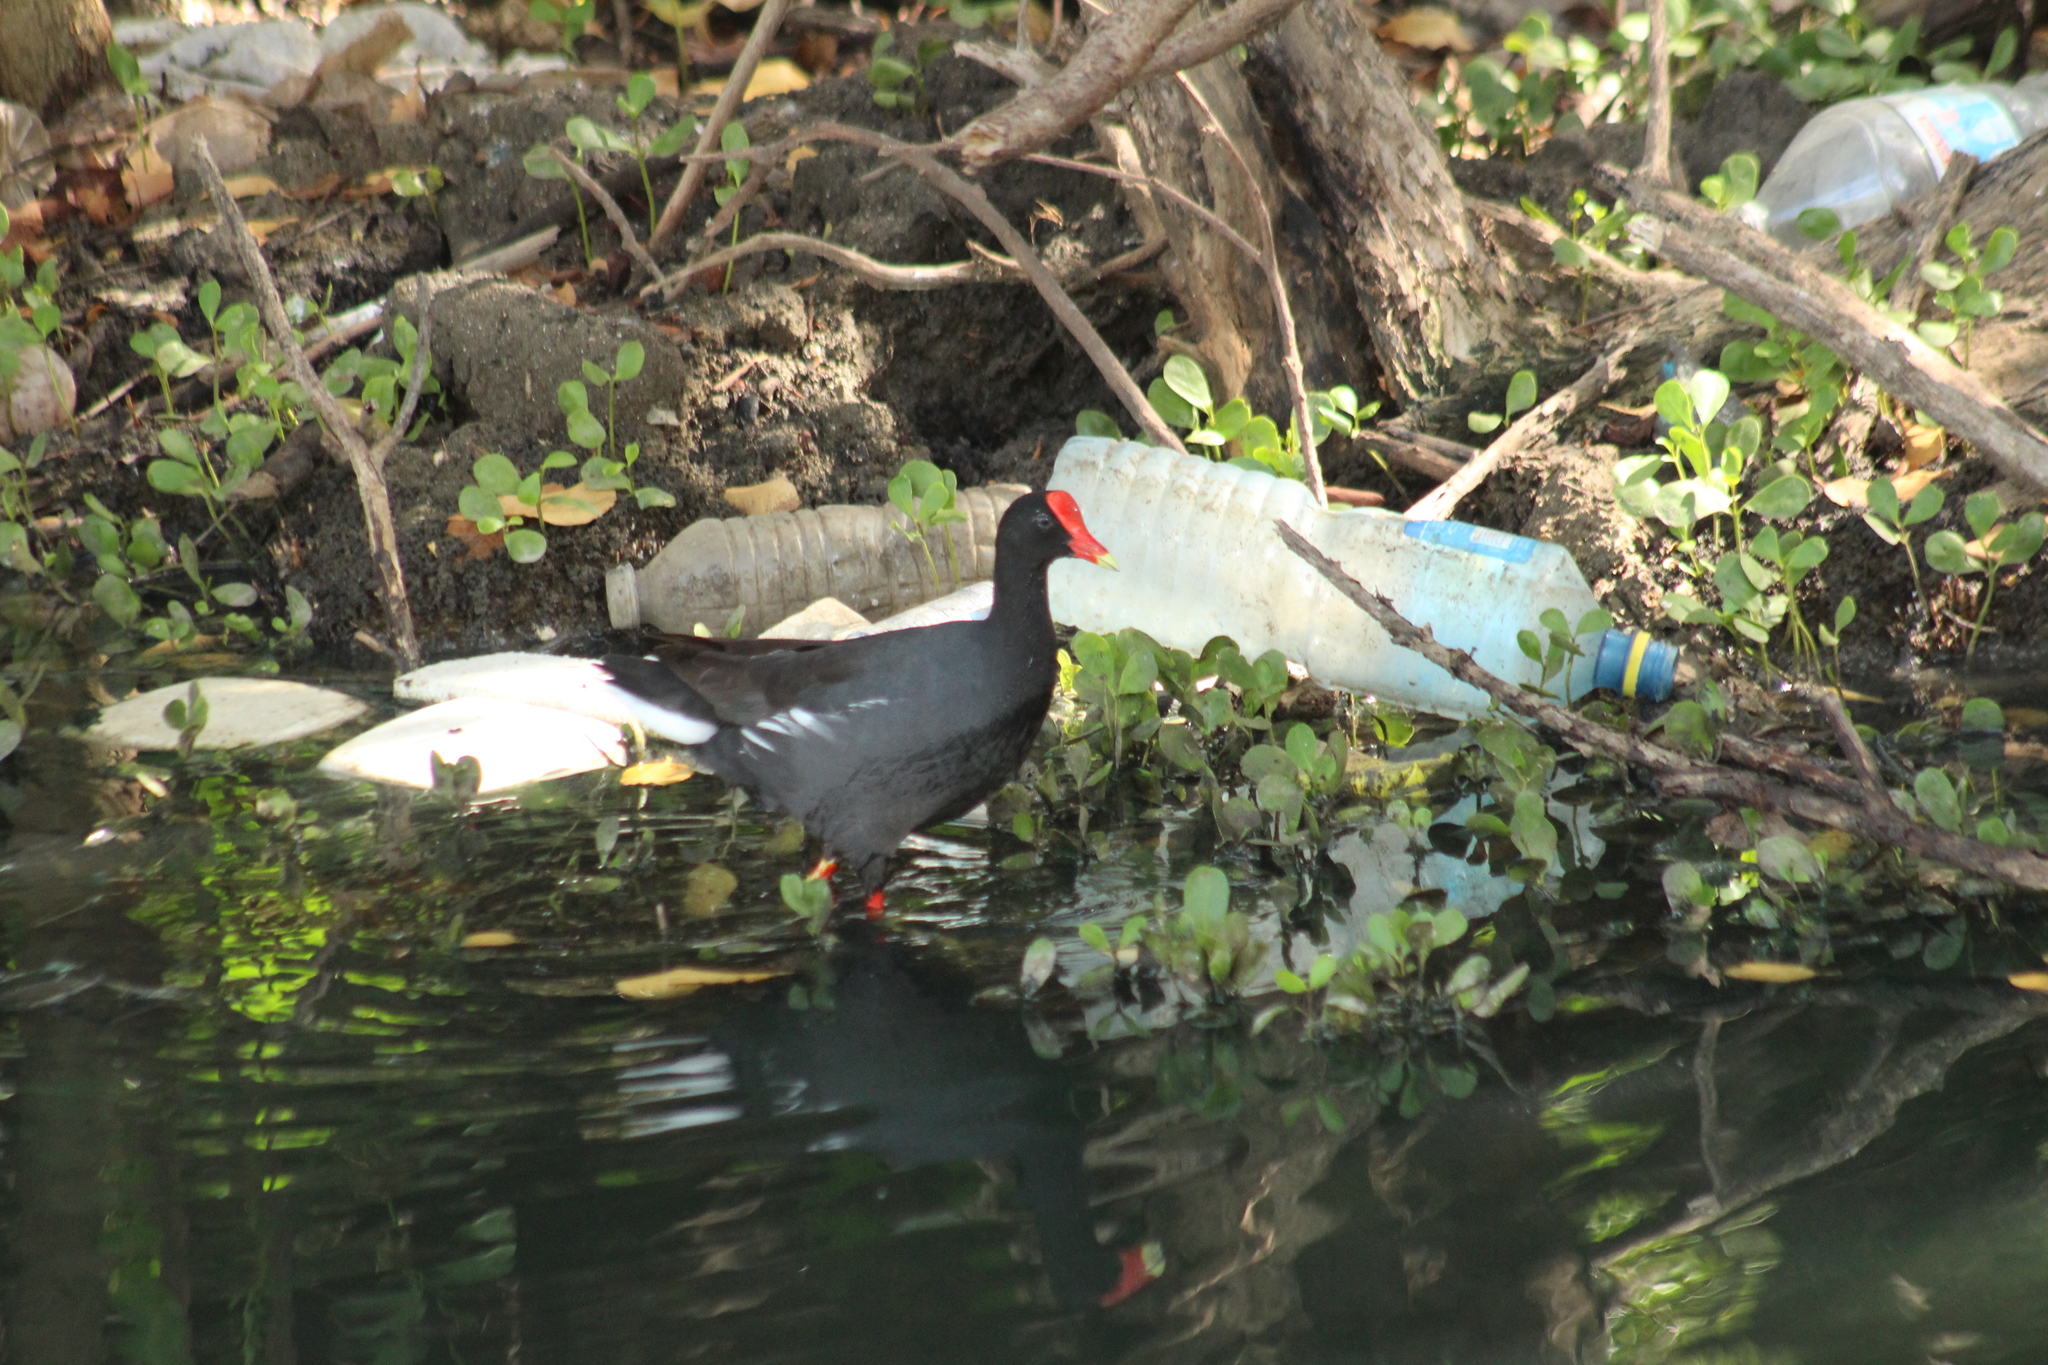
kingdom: Animalia
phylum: Chordata
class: Aves
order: Gruiformes
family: Rallidae
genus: Gallinula
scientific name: Gallinula chloropus
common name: Common moorhen
